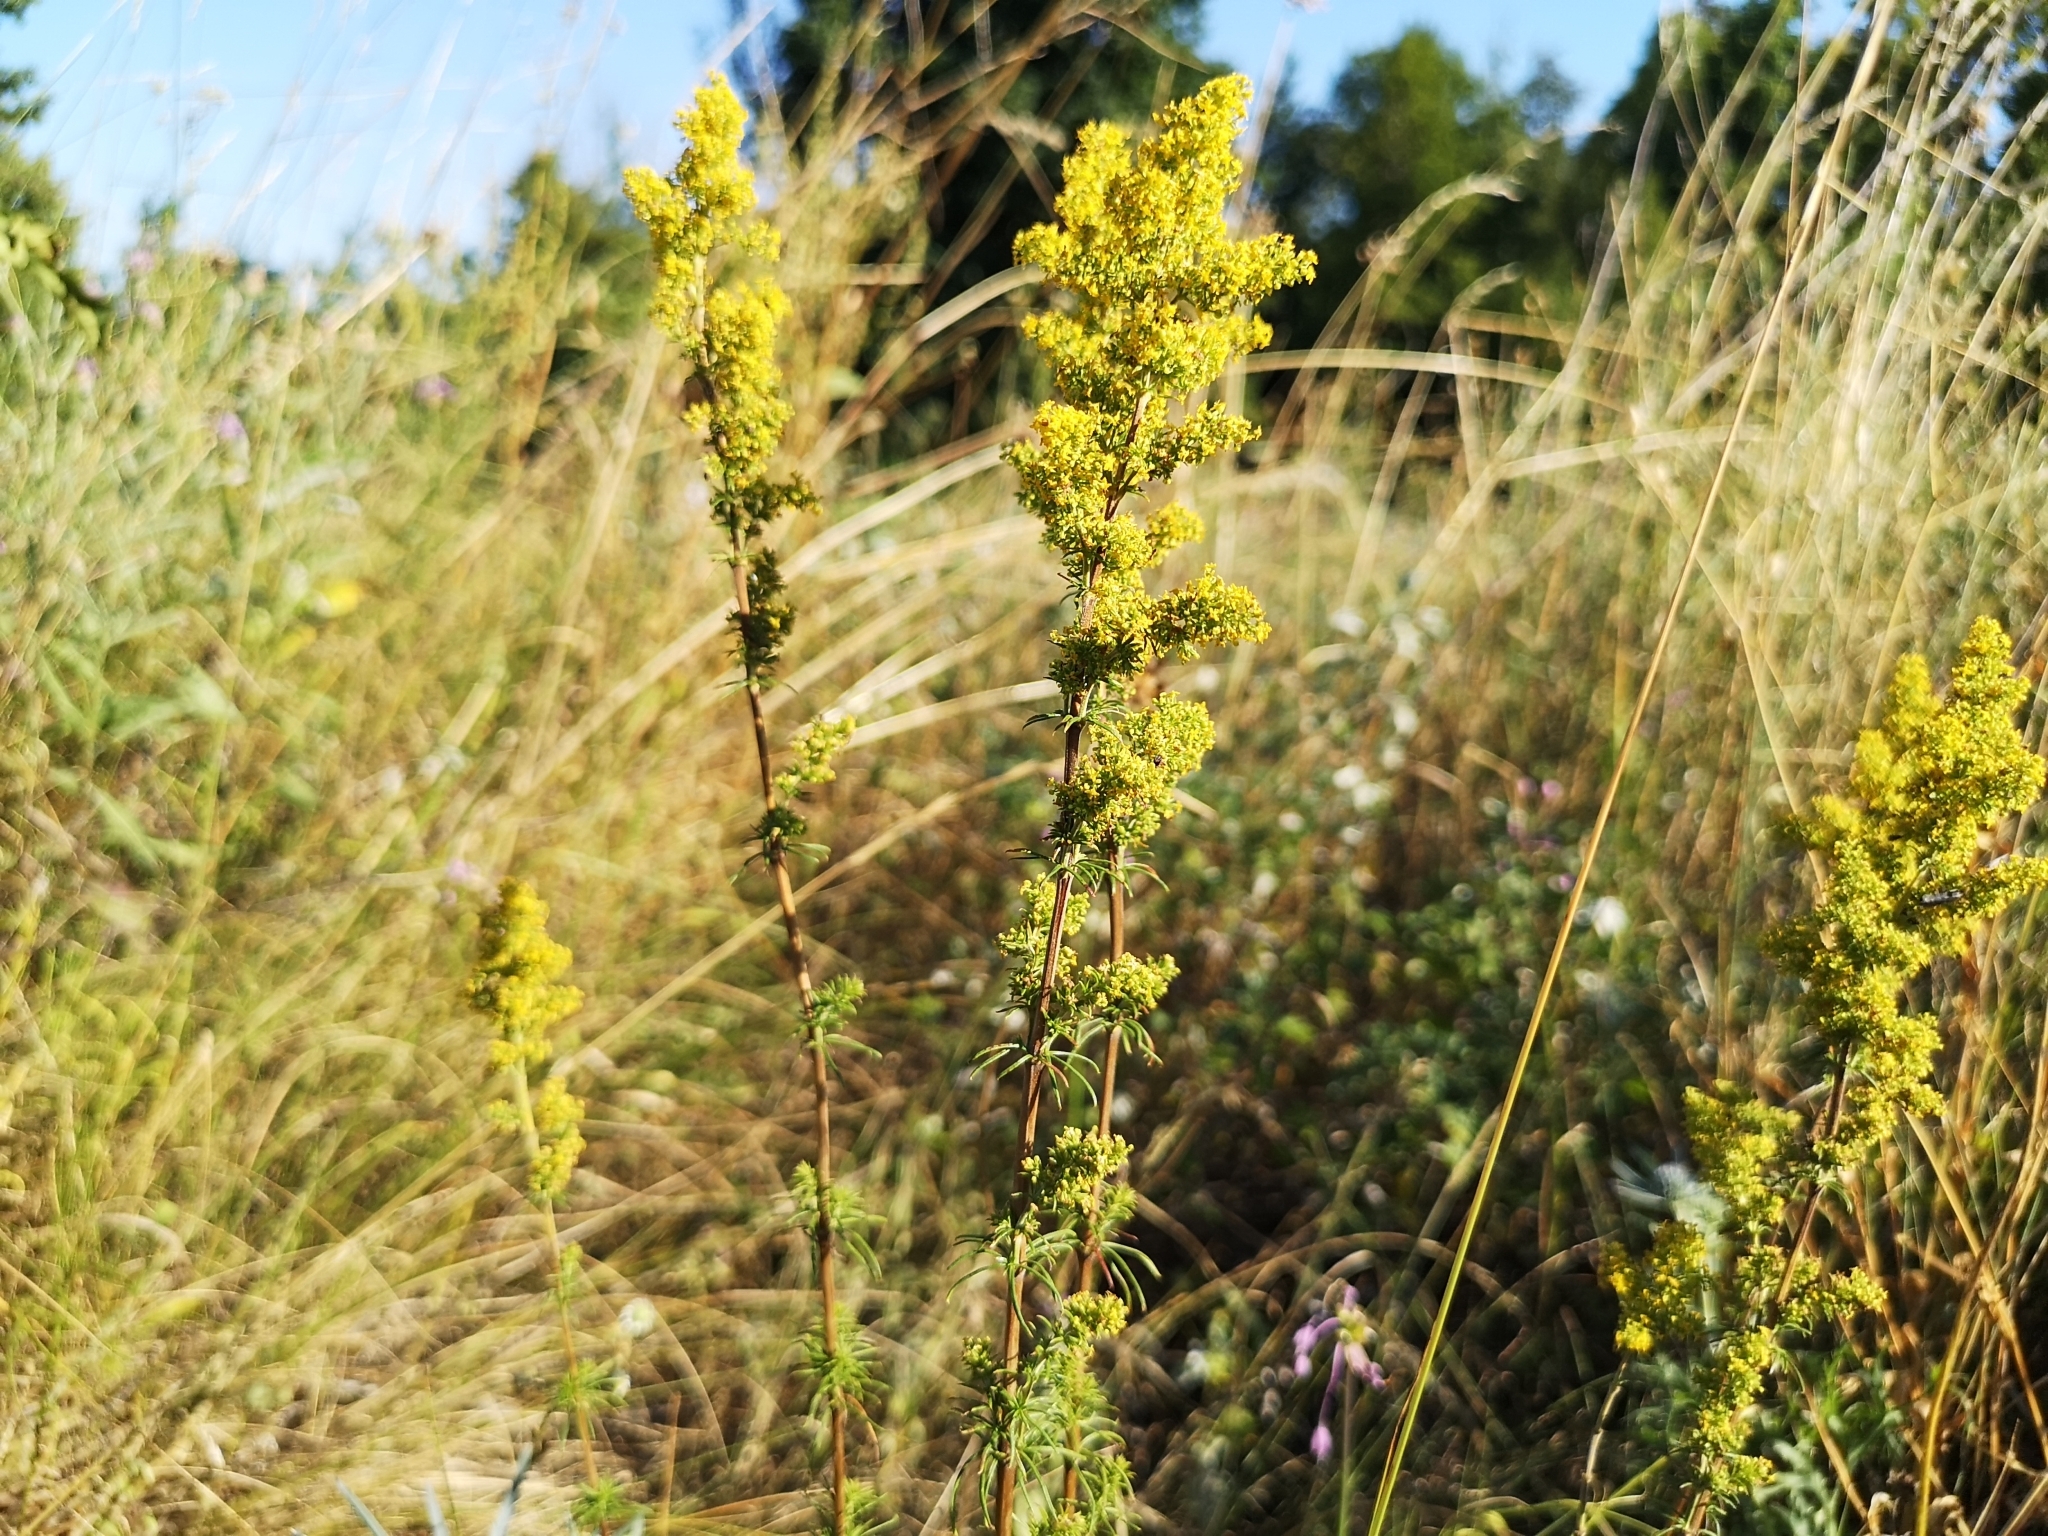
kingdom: Plantae
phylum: Tracheophyta
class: Magnoliopsida
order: Gentianales
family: Rubiaceae
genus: Galium
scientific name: Galium verum
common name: Lady's bedstraw
